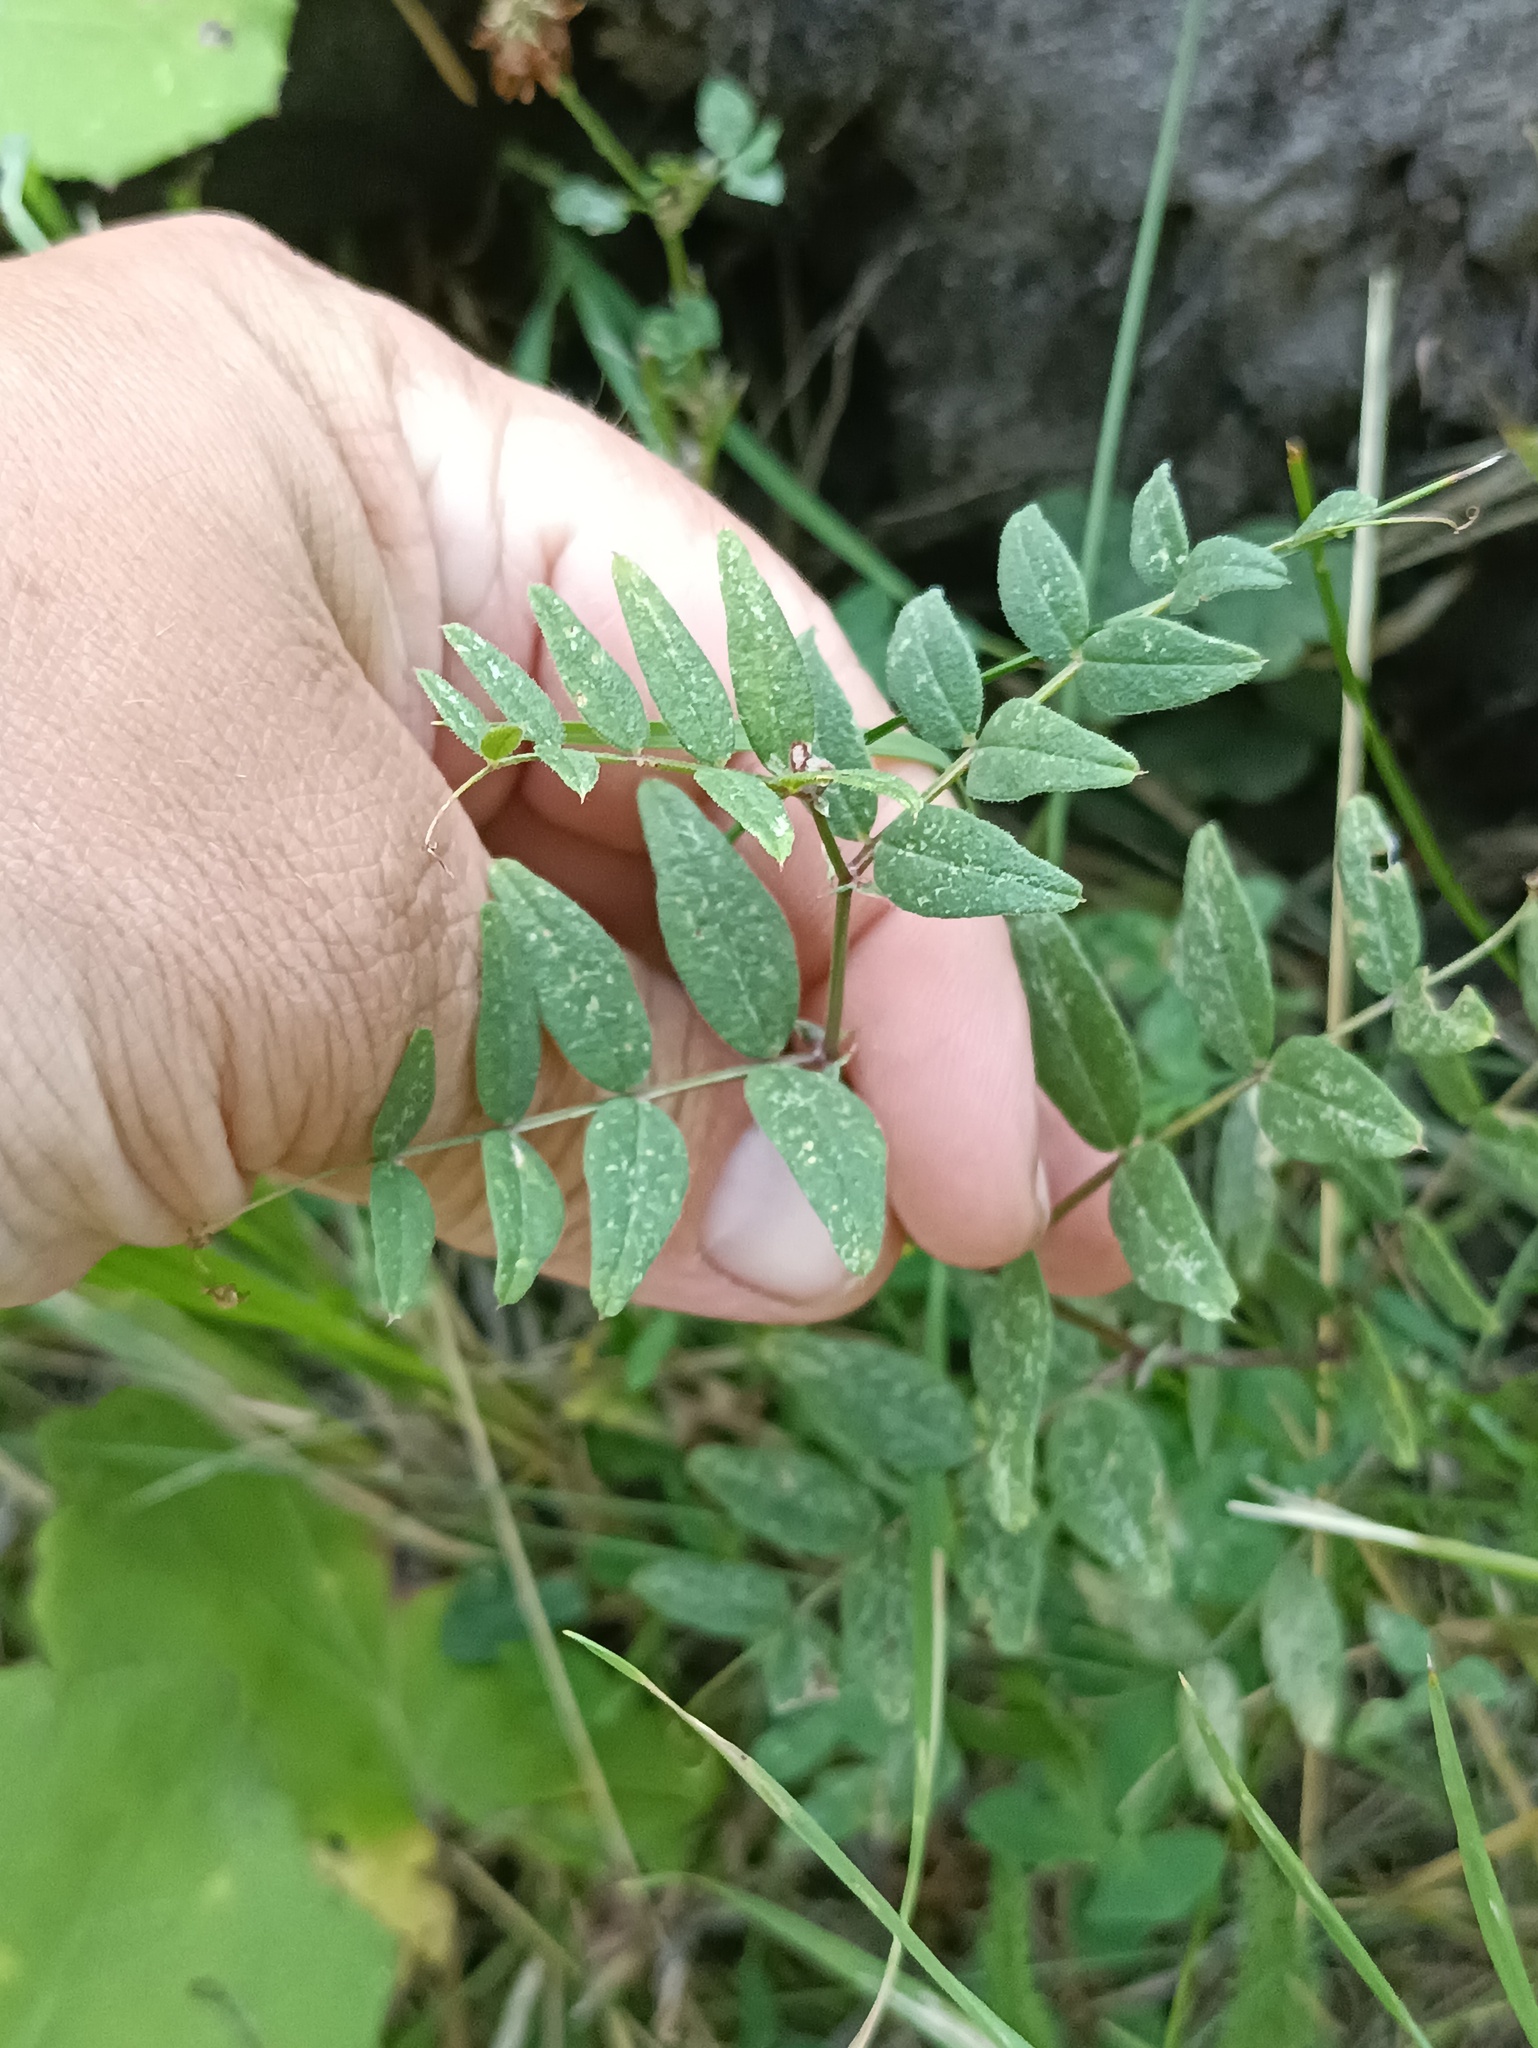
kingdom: Plantae
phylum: Tracheophyta
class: Magnoliopsida
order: Fabales
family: Fabaceae
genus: Vicia
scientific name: Vicia sepium
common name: Bush vetch
